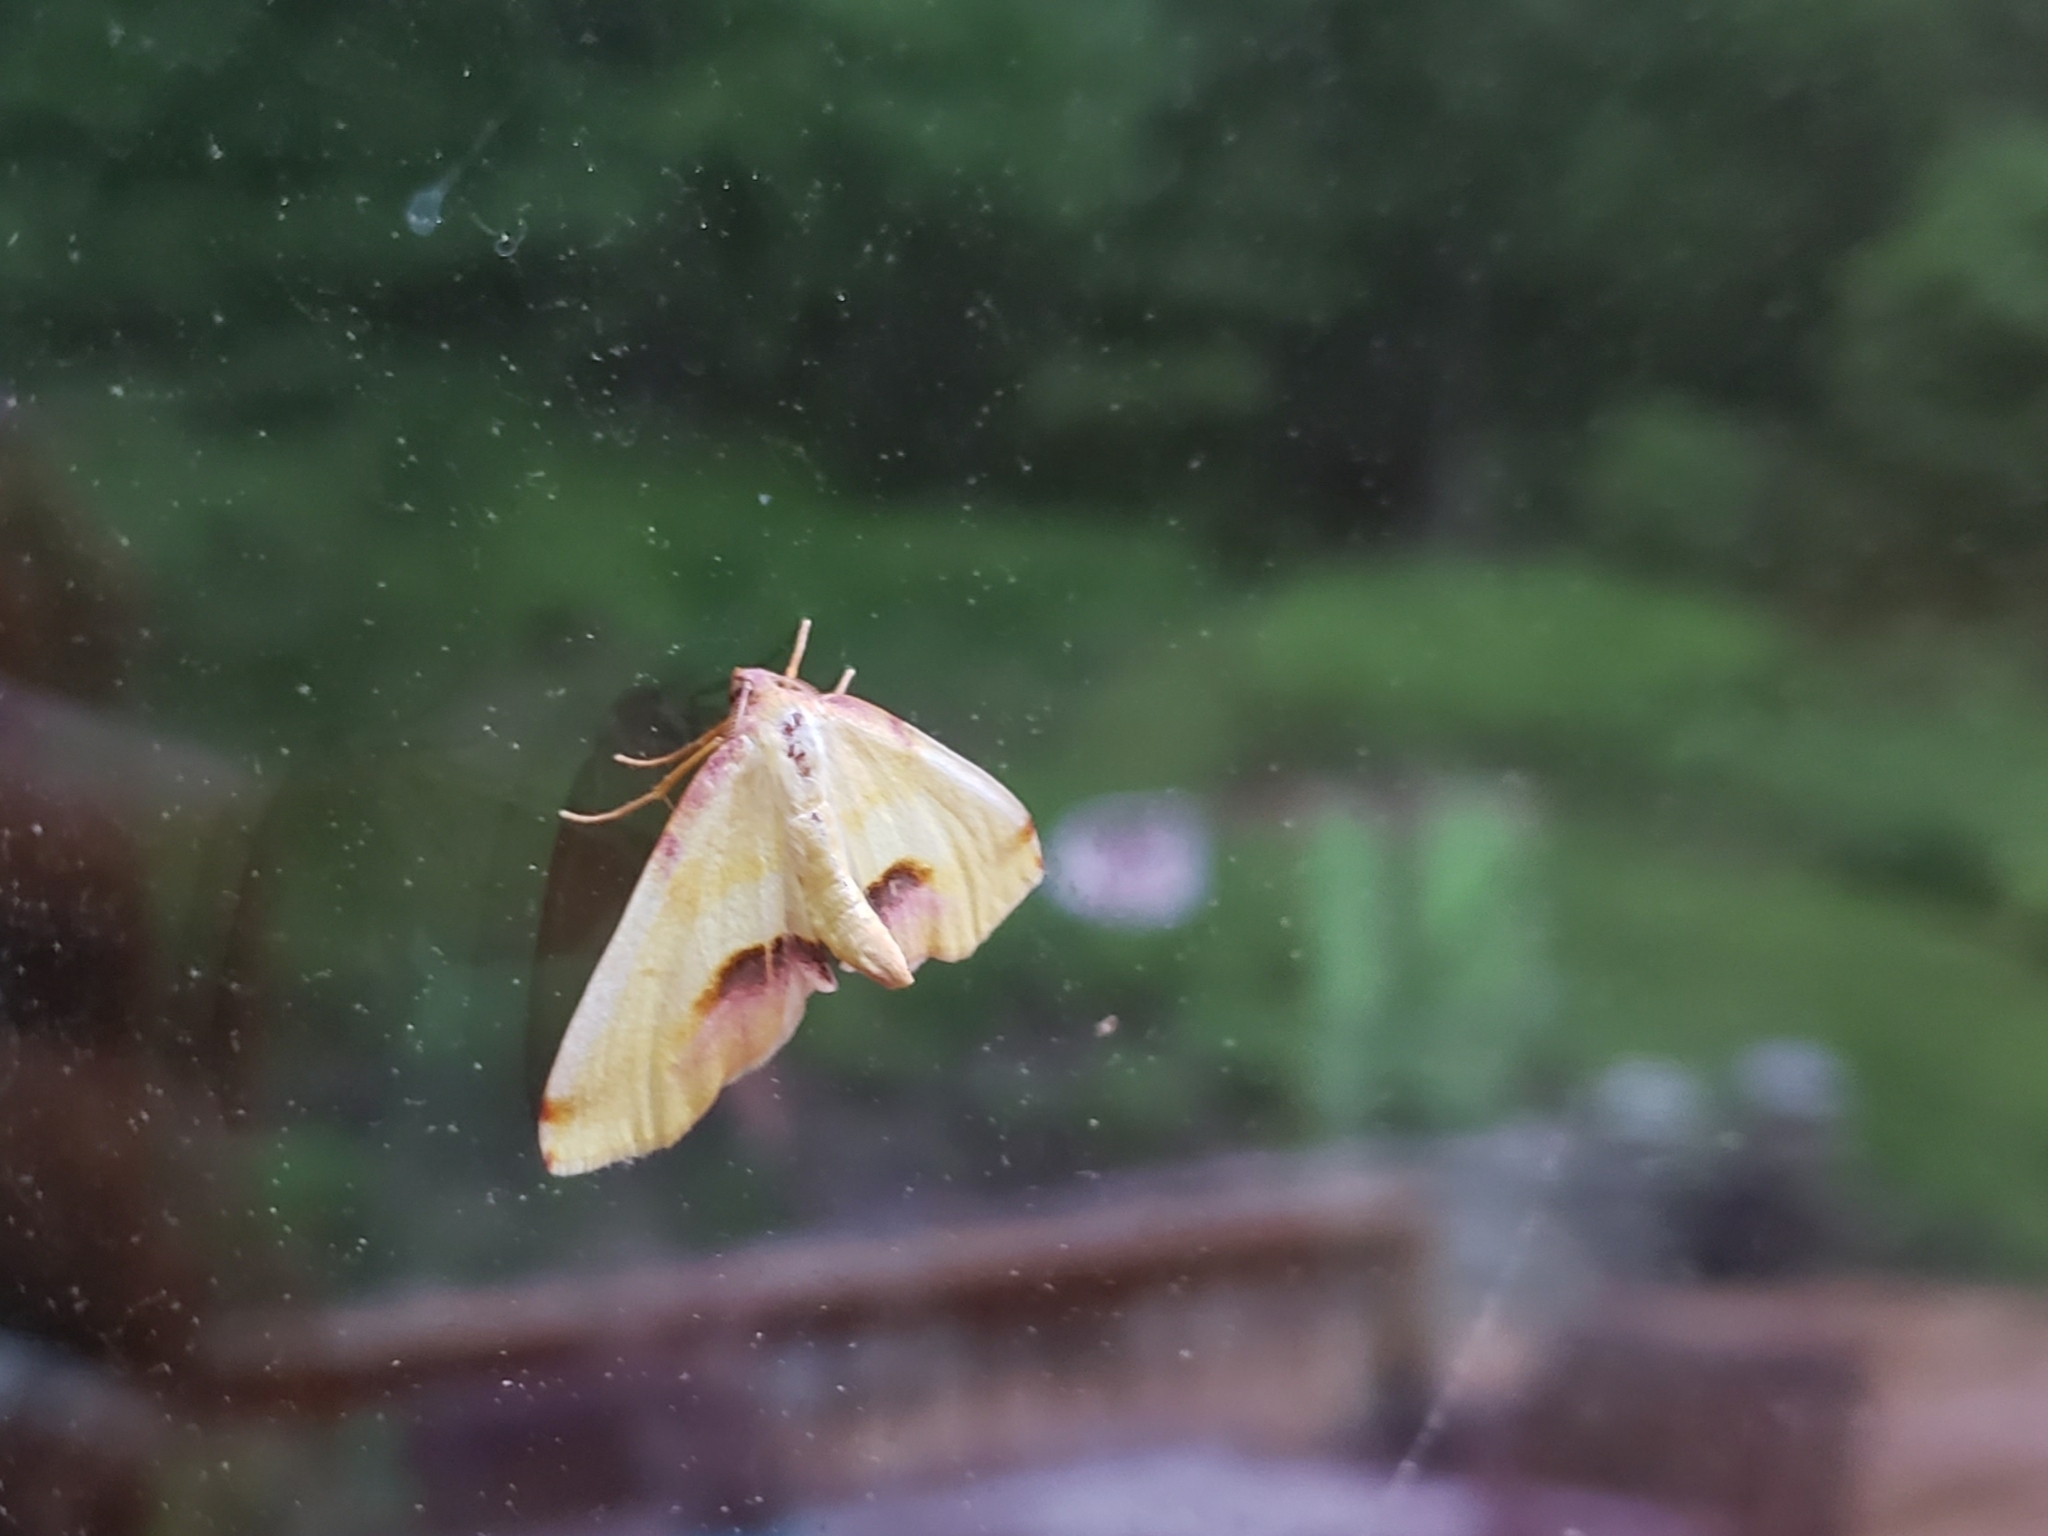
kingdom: Animalia
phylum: Arthropoda
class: Insecta
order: Lepidoptera
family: Geometridae
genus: Plagodis
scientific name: Plagodis serinaria
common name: Lemon plagodis
